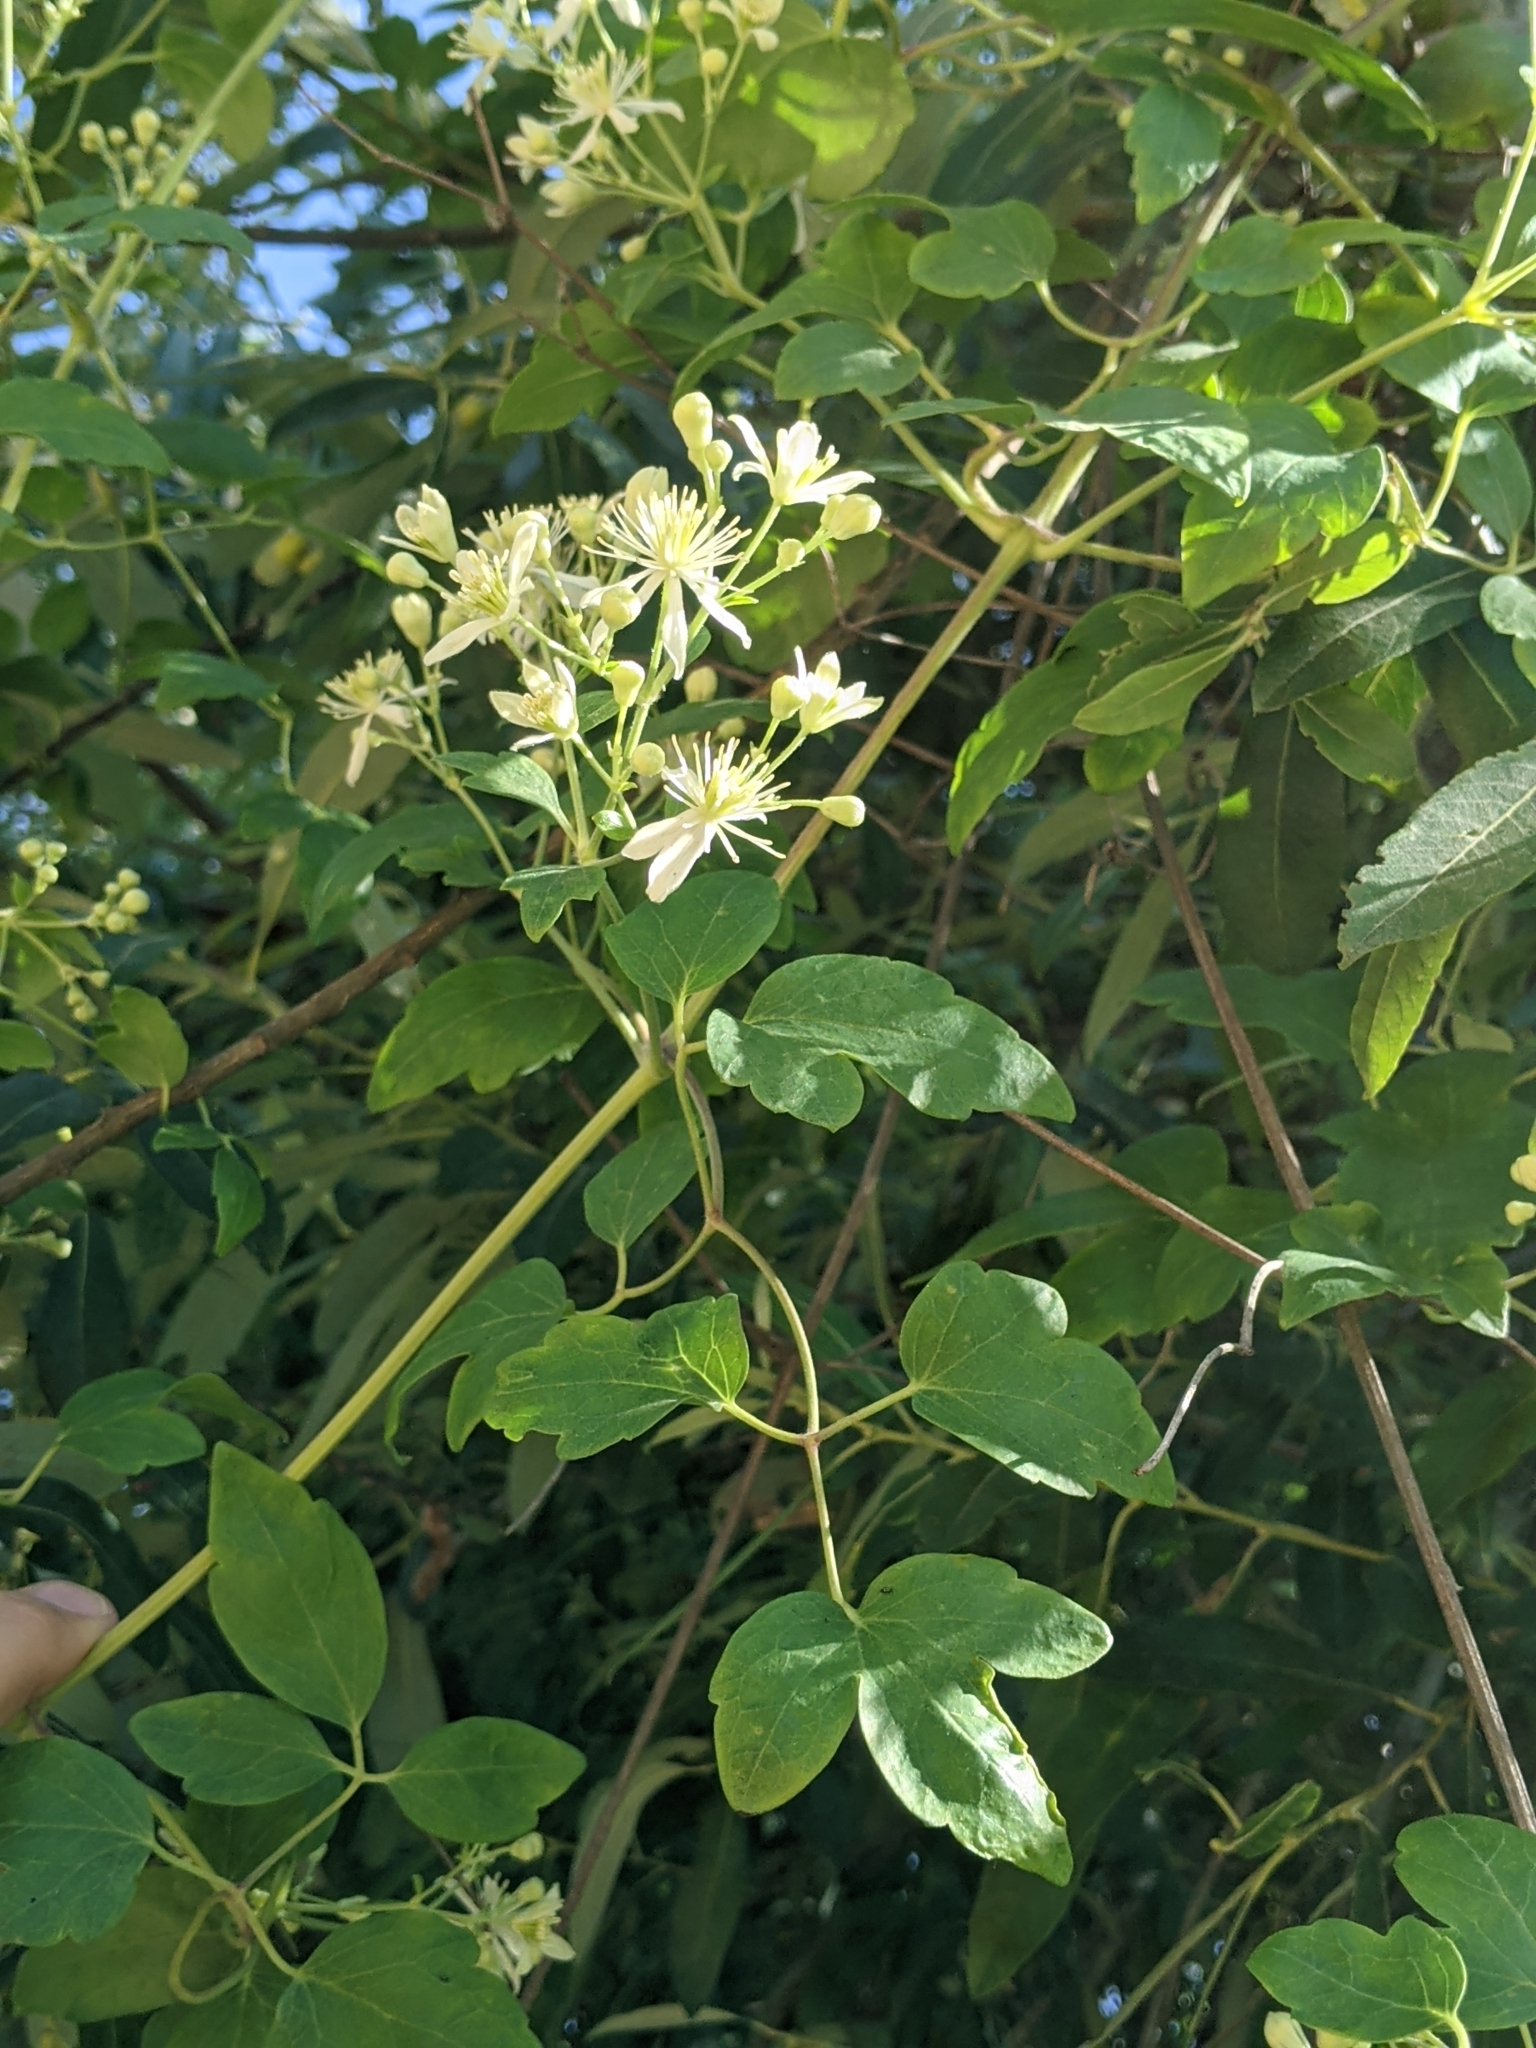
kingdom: Plantae
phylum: Tracheophyta
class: Magnoliopsida
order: Ranunculales
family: Ranunculaceae
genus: Clematis
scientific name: Clematis ligusticifolia
